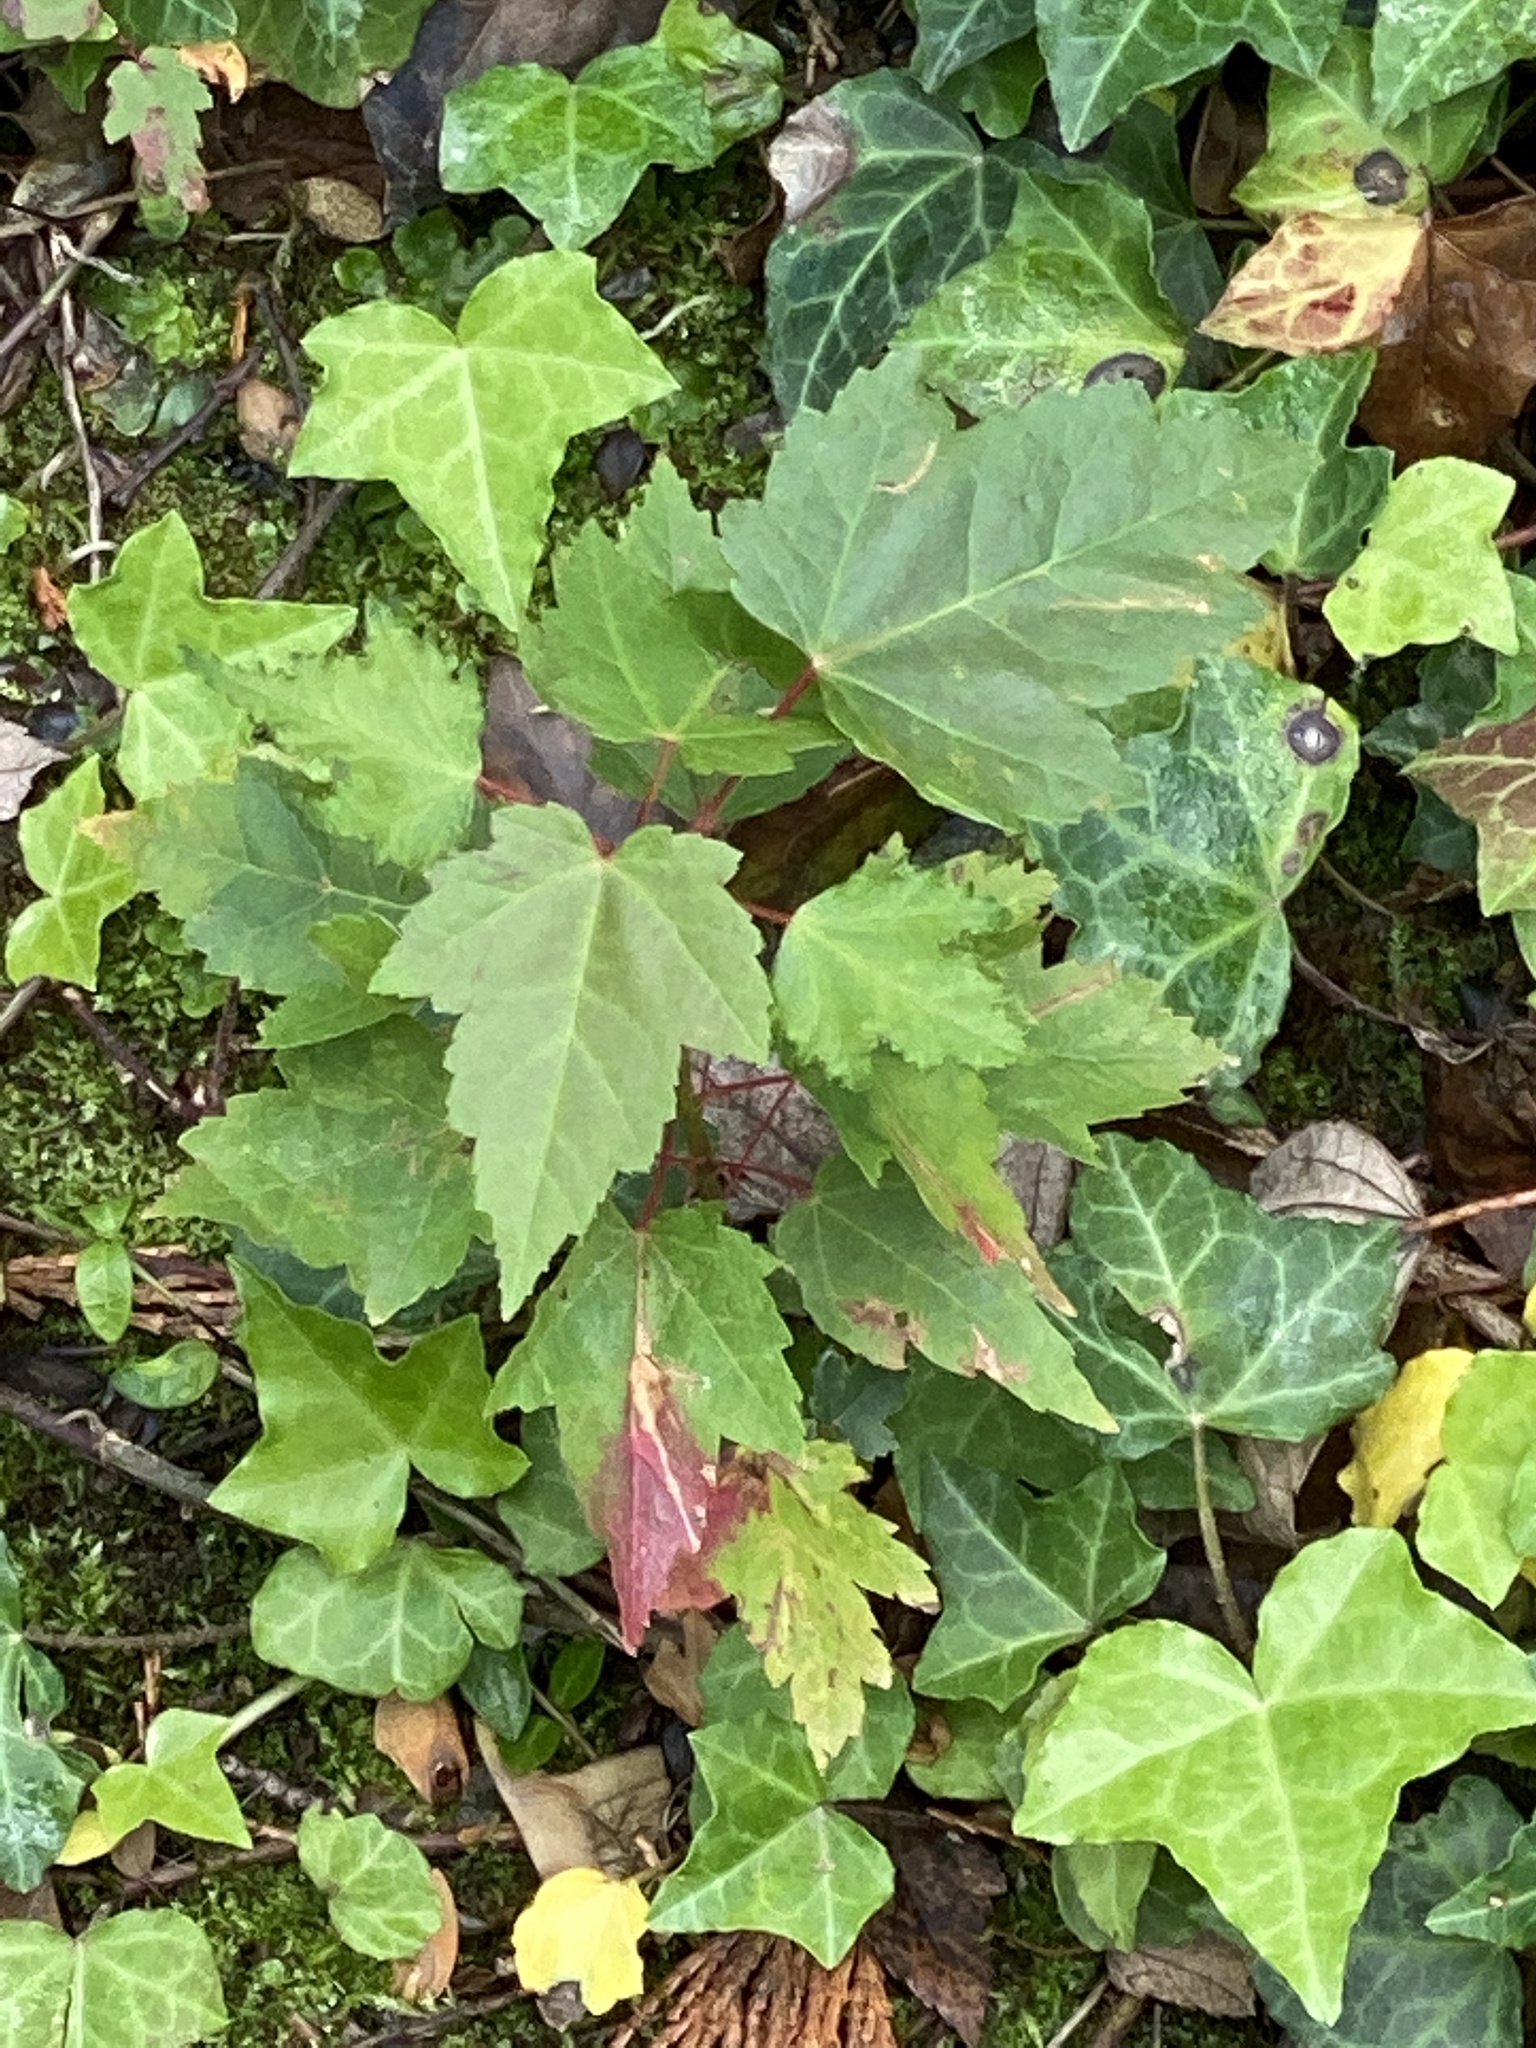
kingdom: Plantae
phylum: Tracheophyta
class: Magnoliopsida
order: Sapindales
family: Sapindaceae
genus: Acer
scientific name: Acer rubrum
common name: Red maple
